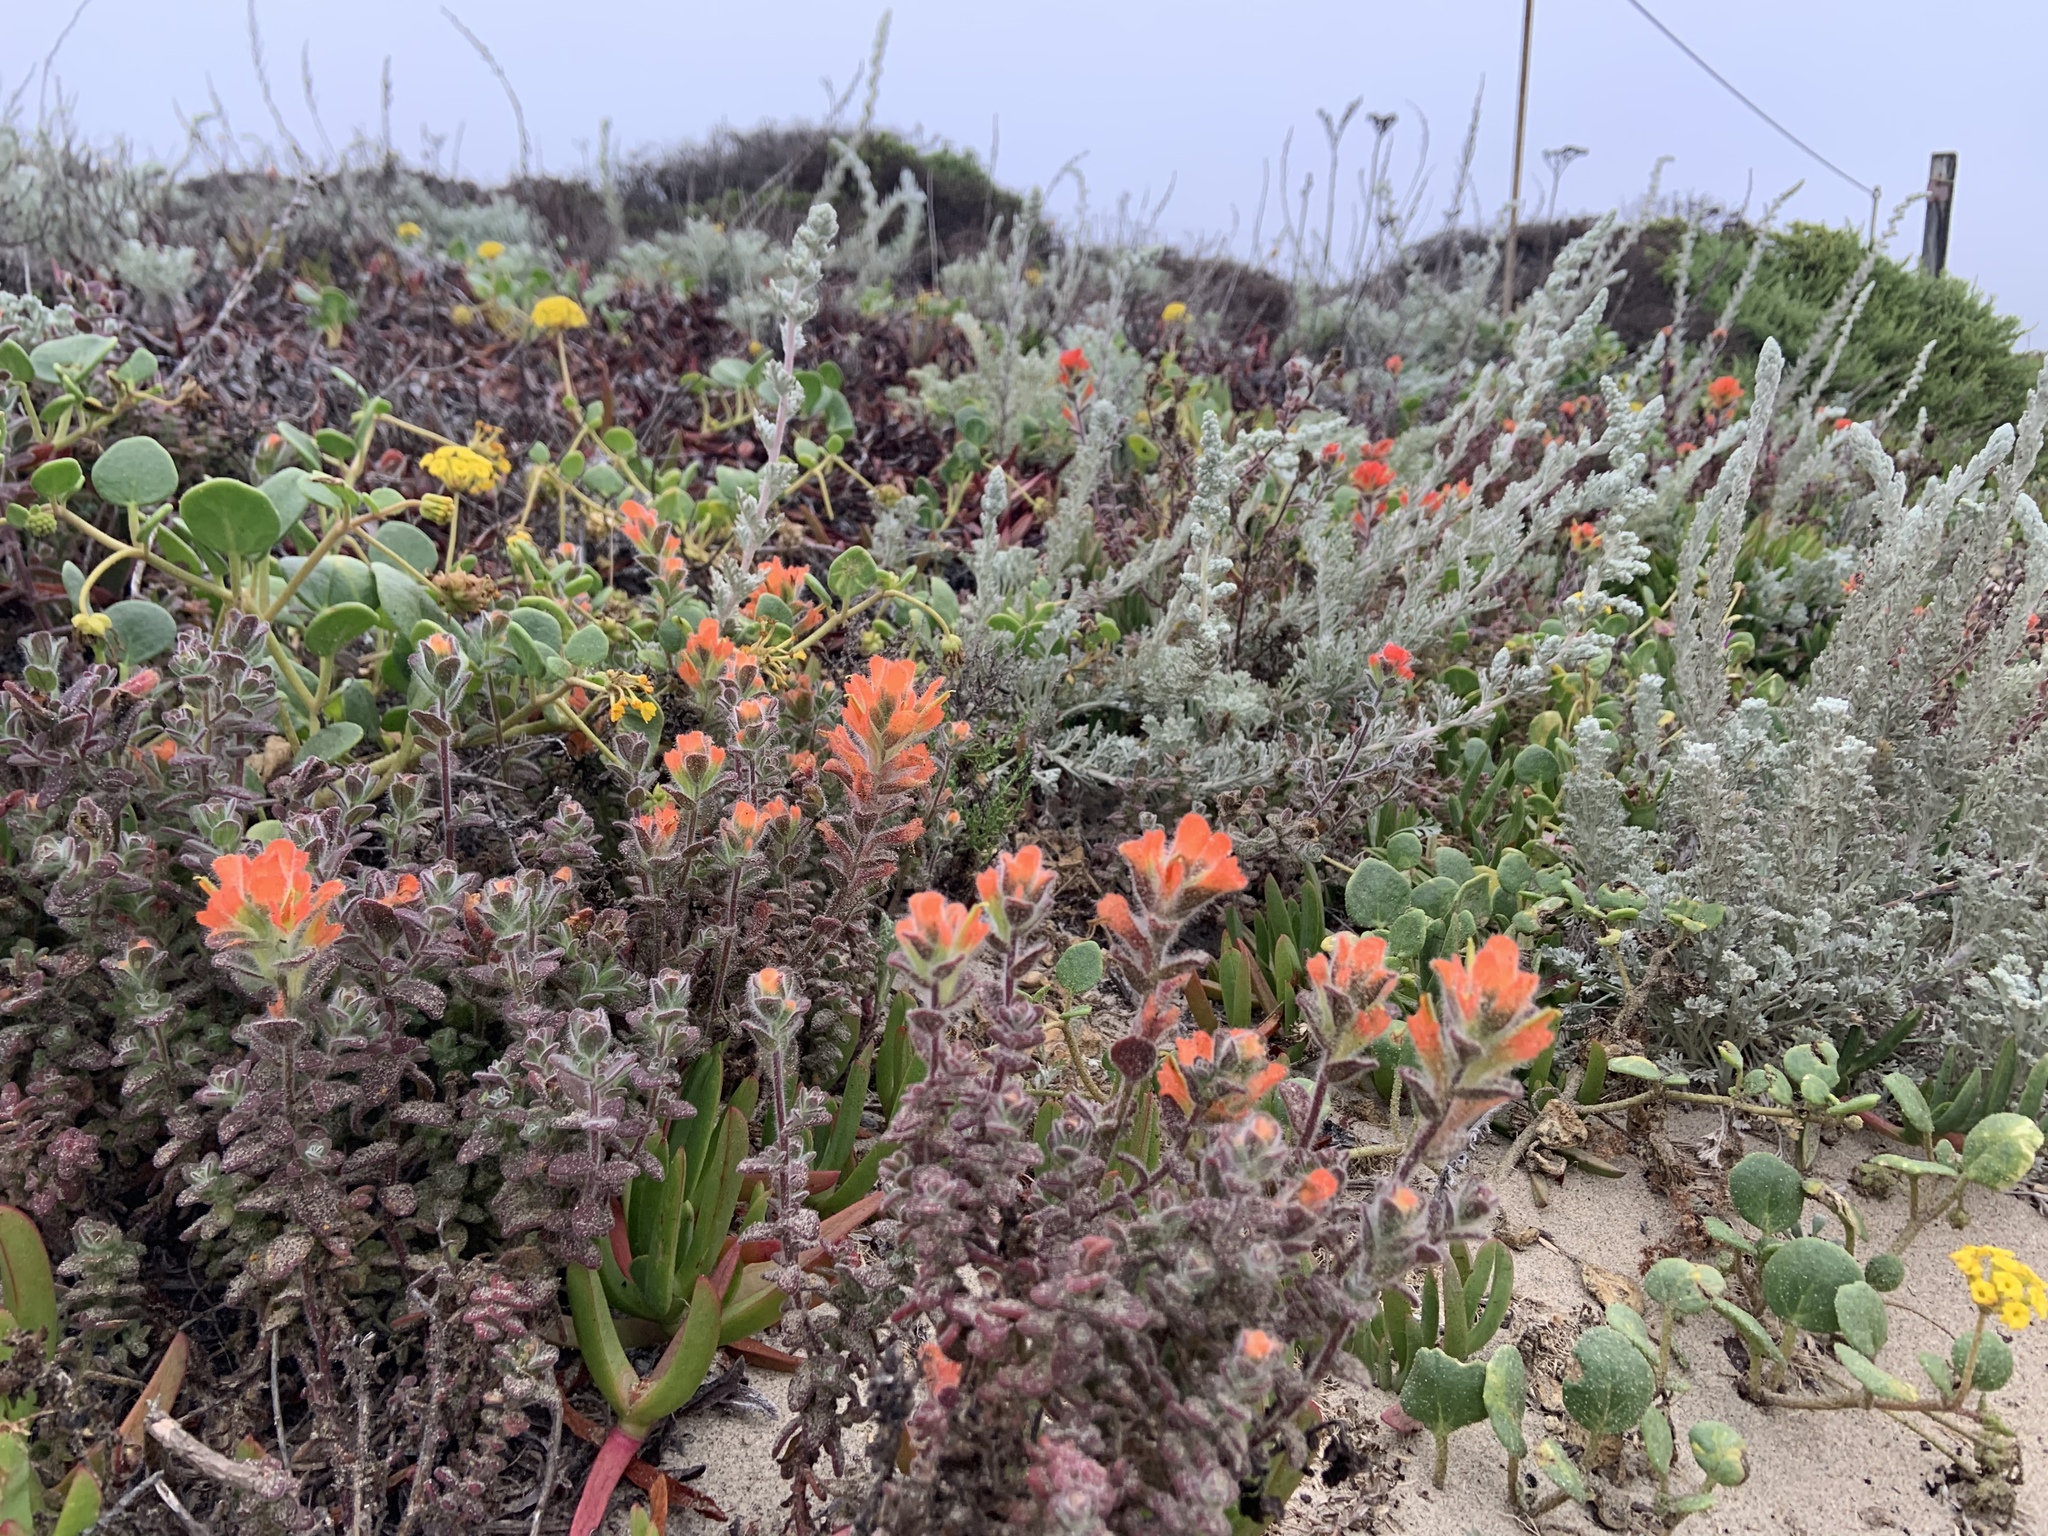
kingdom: Plantae
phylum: Tracheophyta
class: Magnoliopsida
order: Lamiales
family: Orobanchaceae
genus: Castilleja
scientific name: Castilleja latifolia
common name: Monterey indian paintbrush
